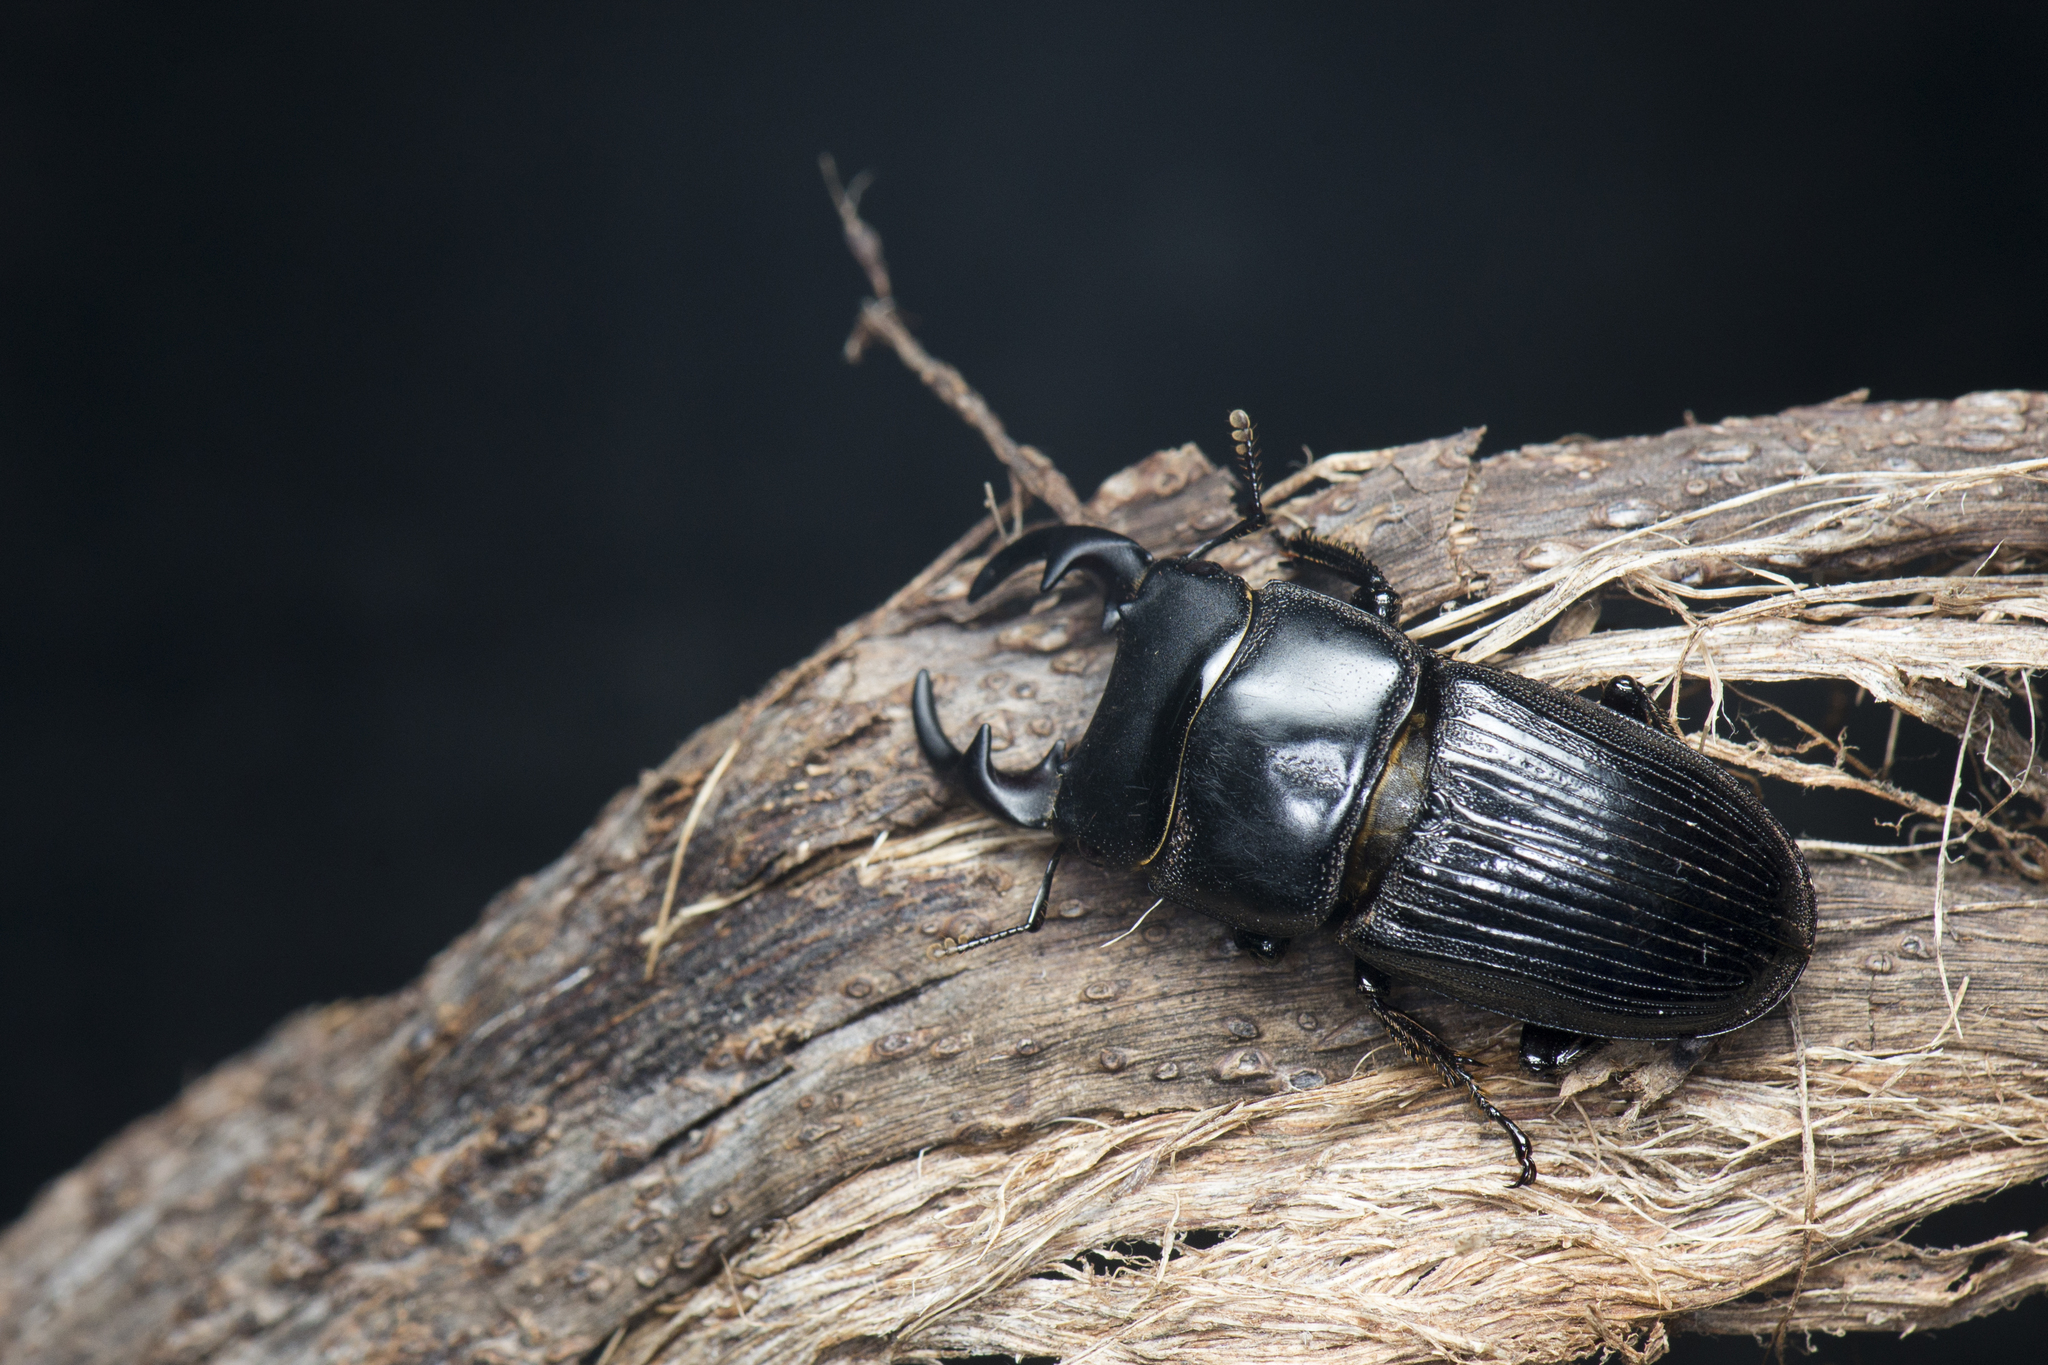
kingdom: Animalia
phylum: Arthropoda
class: Insecta
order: Coleoptera
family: Lucanidae
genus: Aegus
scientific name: Aegus laevicollis
